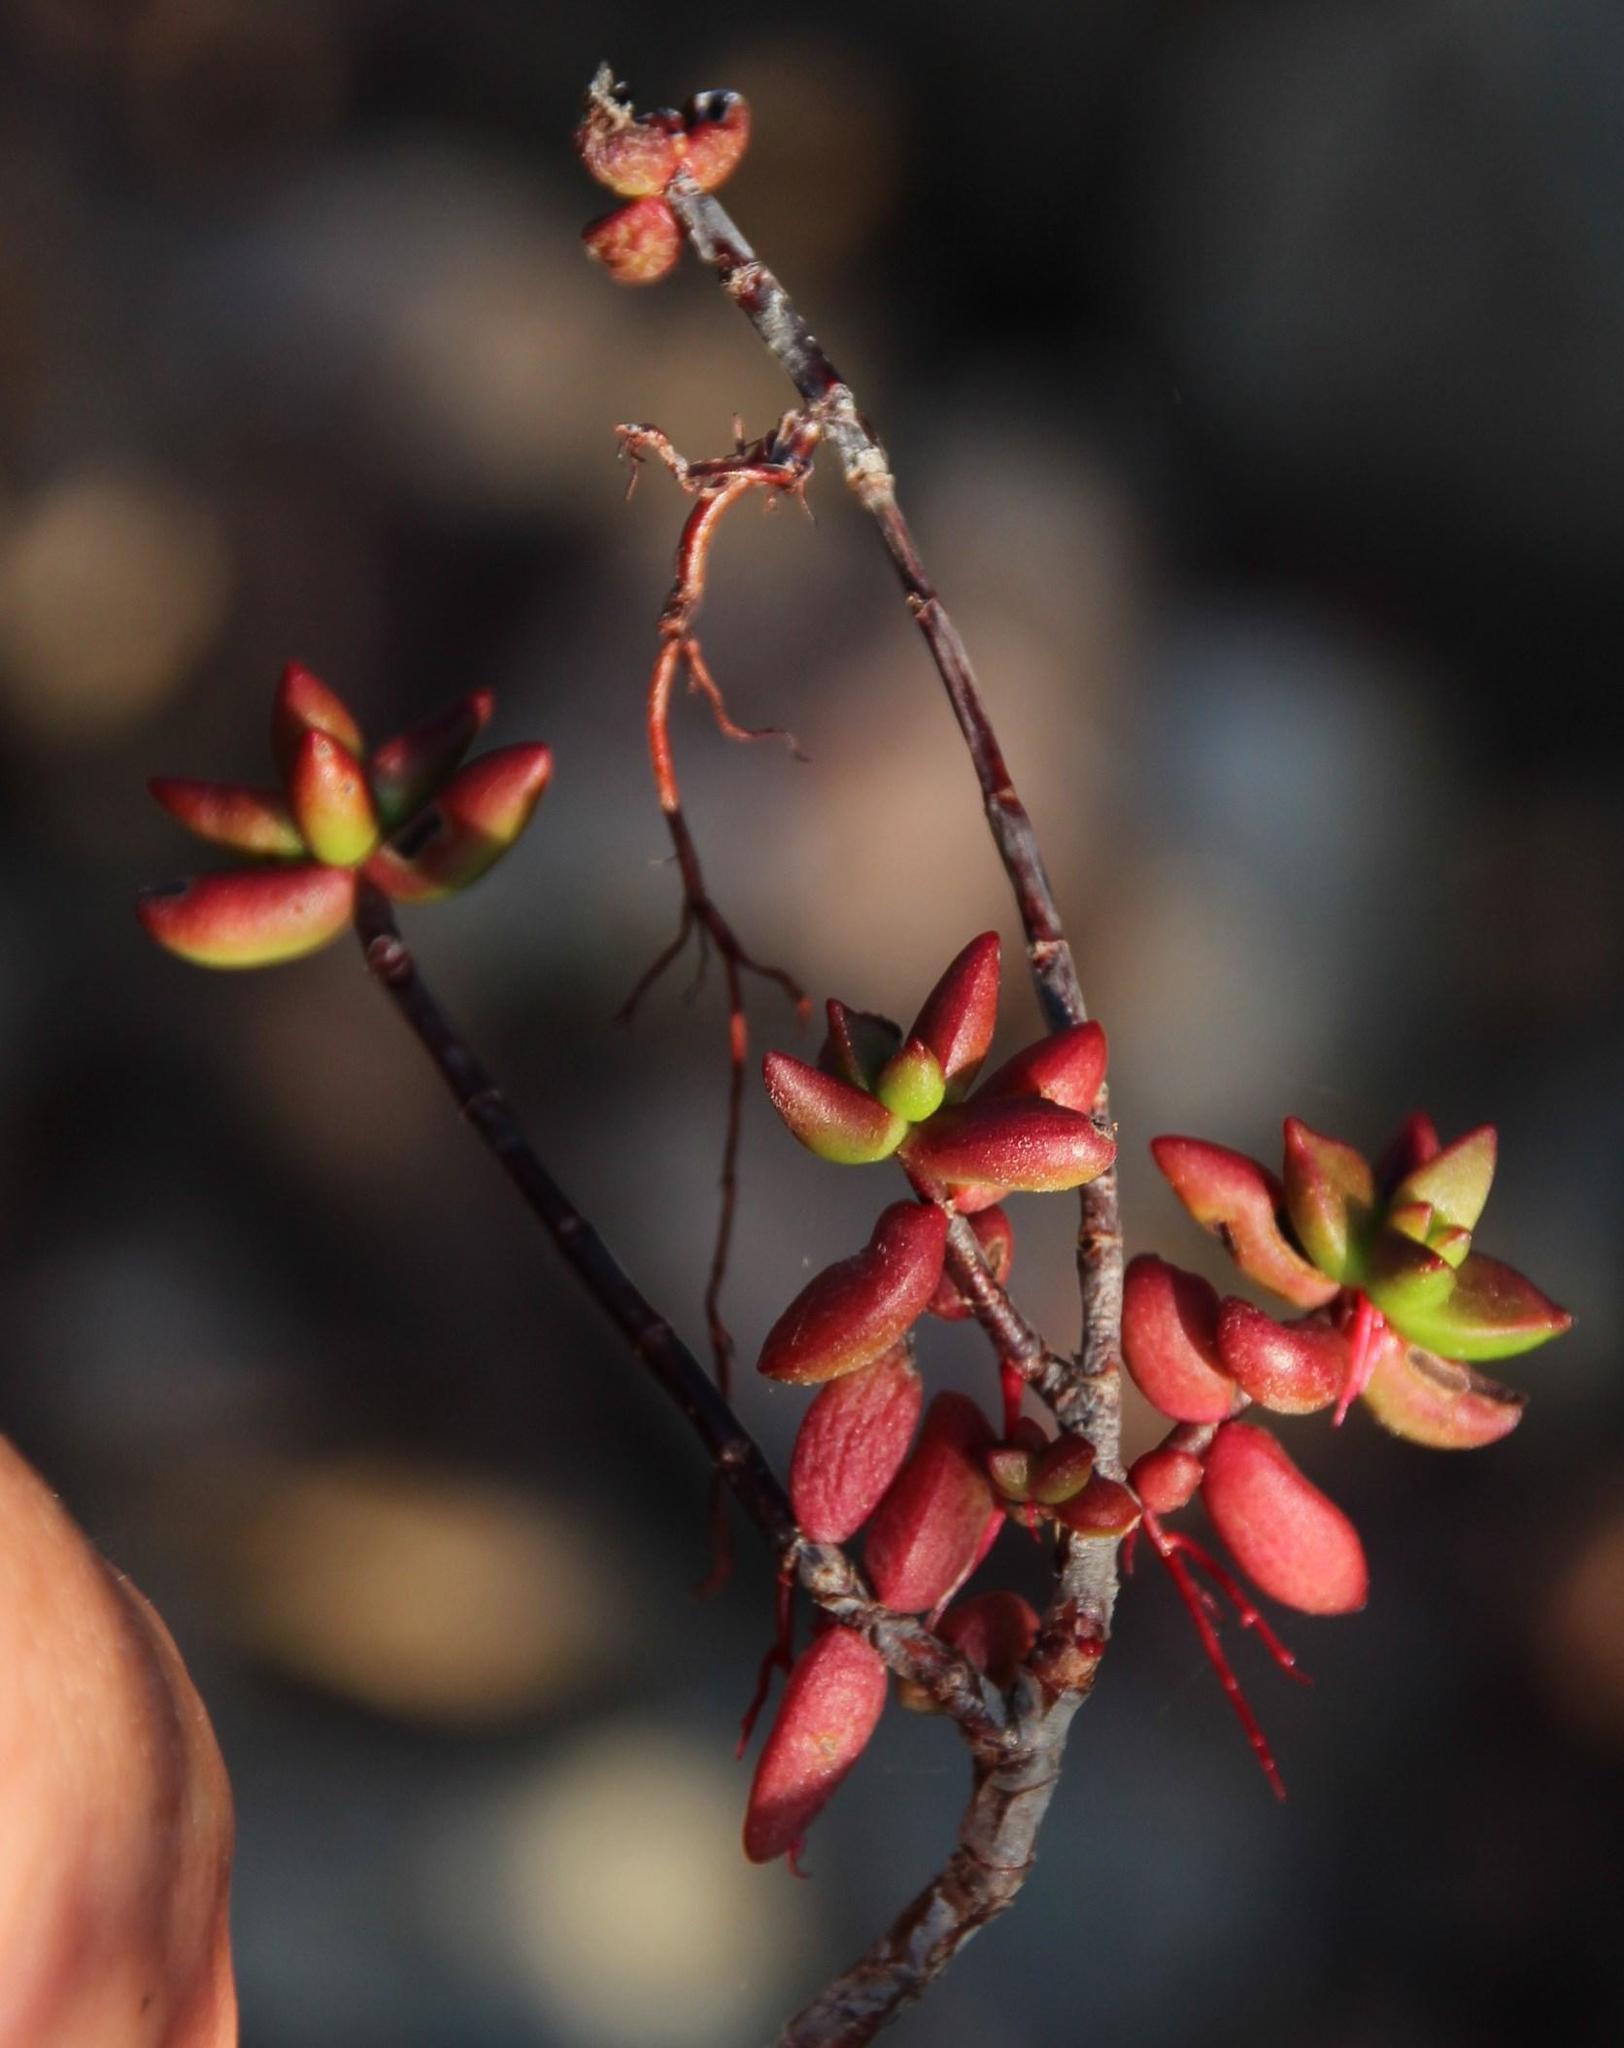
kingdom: Plantae
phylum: Tracheophyta
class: Magnoliopsida
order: Saxifragales
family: Crassulaceae
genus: Crassula
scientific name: Crassula subaphylla
